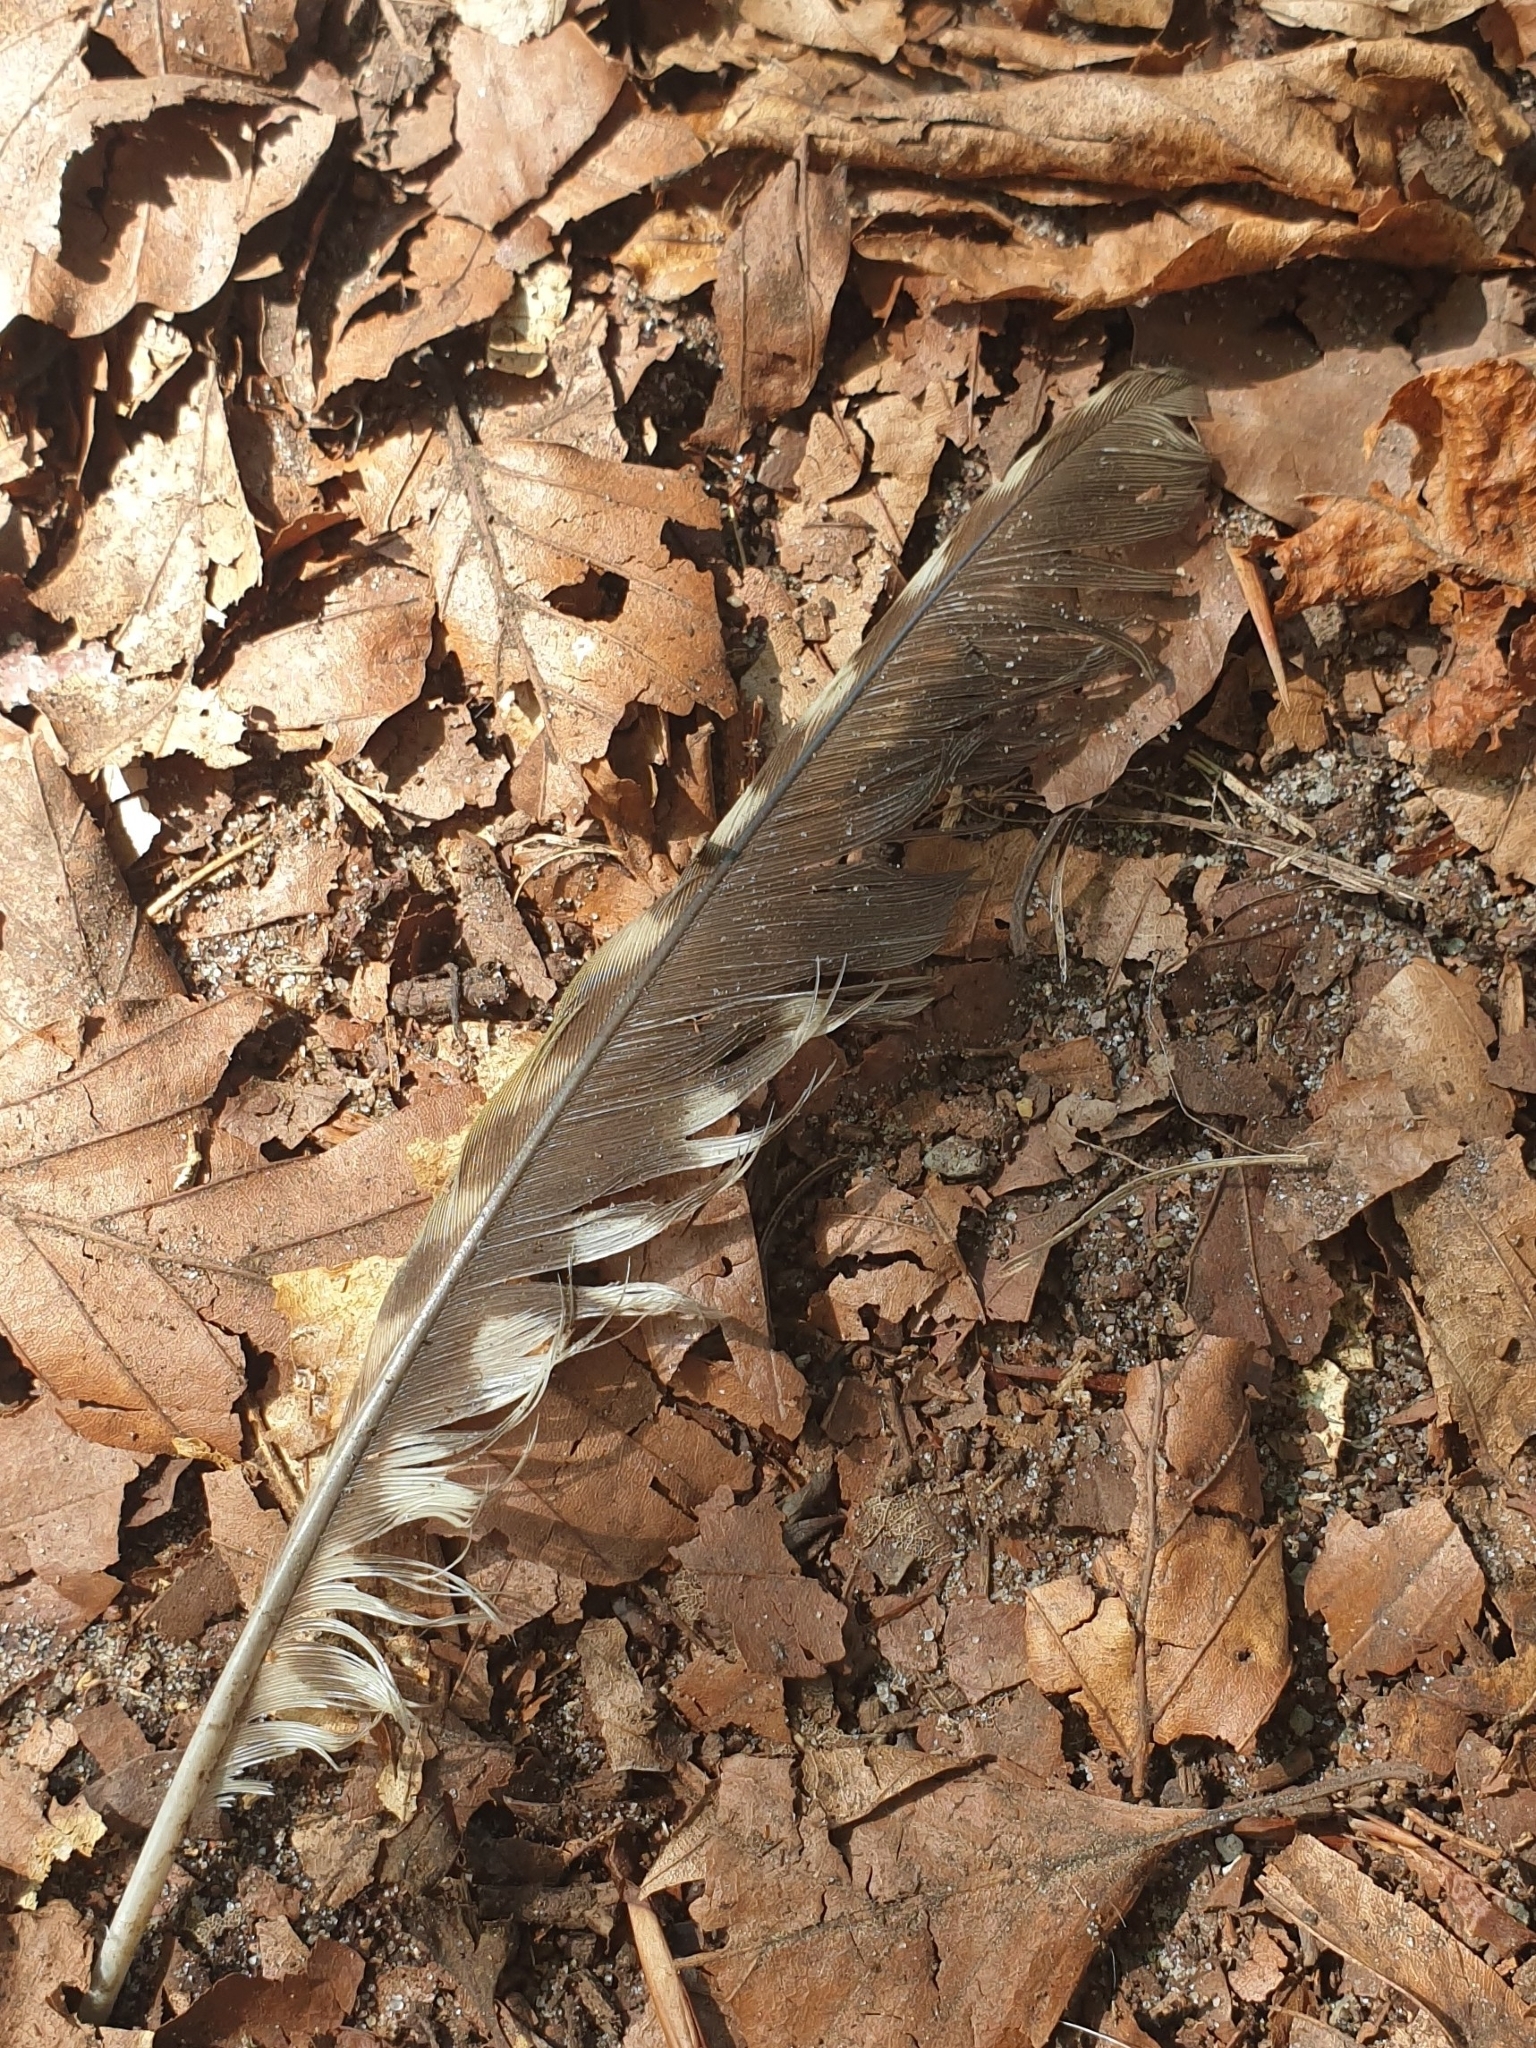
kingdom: Animalia
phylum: Chordata
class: Aves
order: Piciformes
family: Picidae
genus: Picus
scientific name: Picus viridis
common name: European green woodpecker
